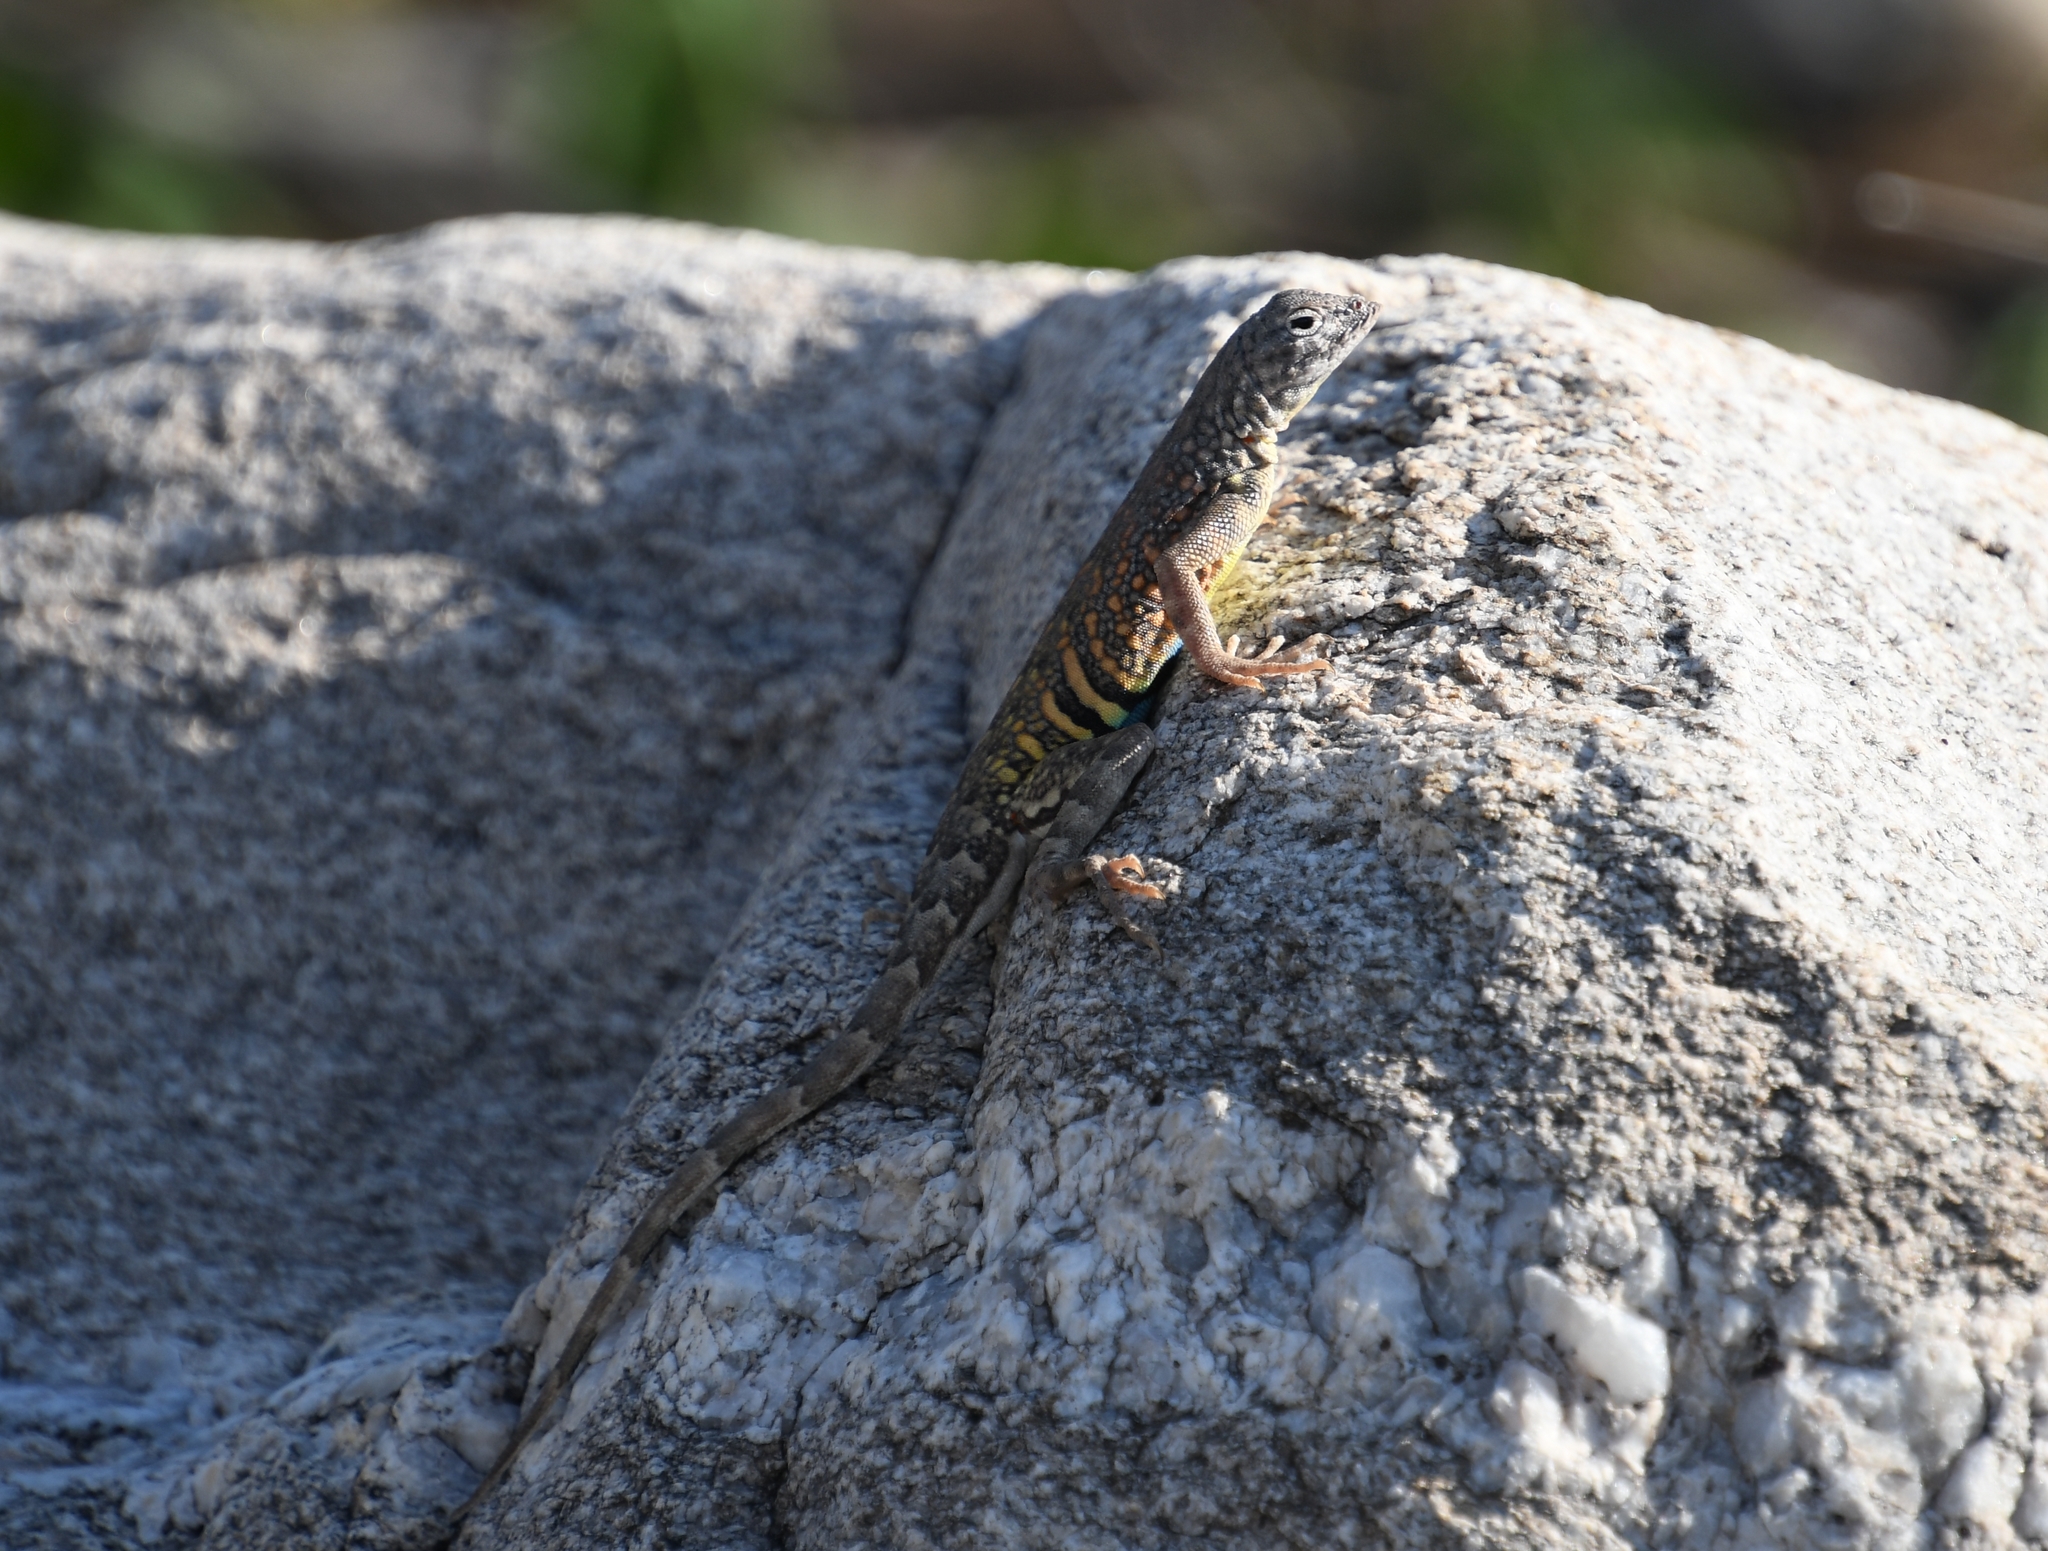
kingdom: Animalia
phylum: Chordata
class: Squamata
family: Phrynosomatidae
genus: Cophosaurus
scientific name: Cophosaurus texanus
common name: Greater earless lizard
